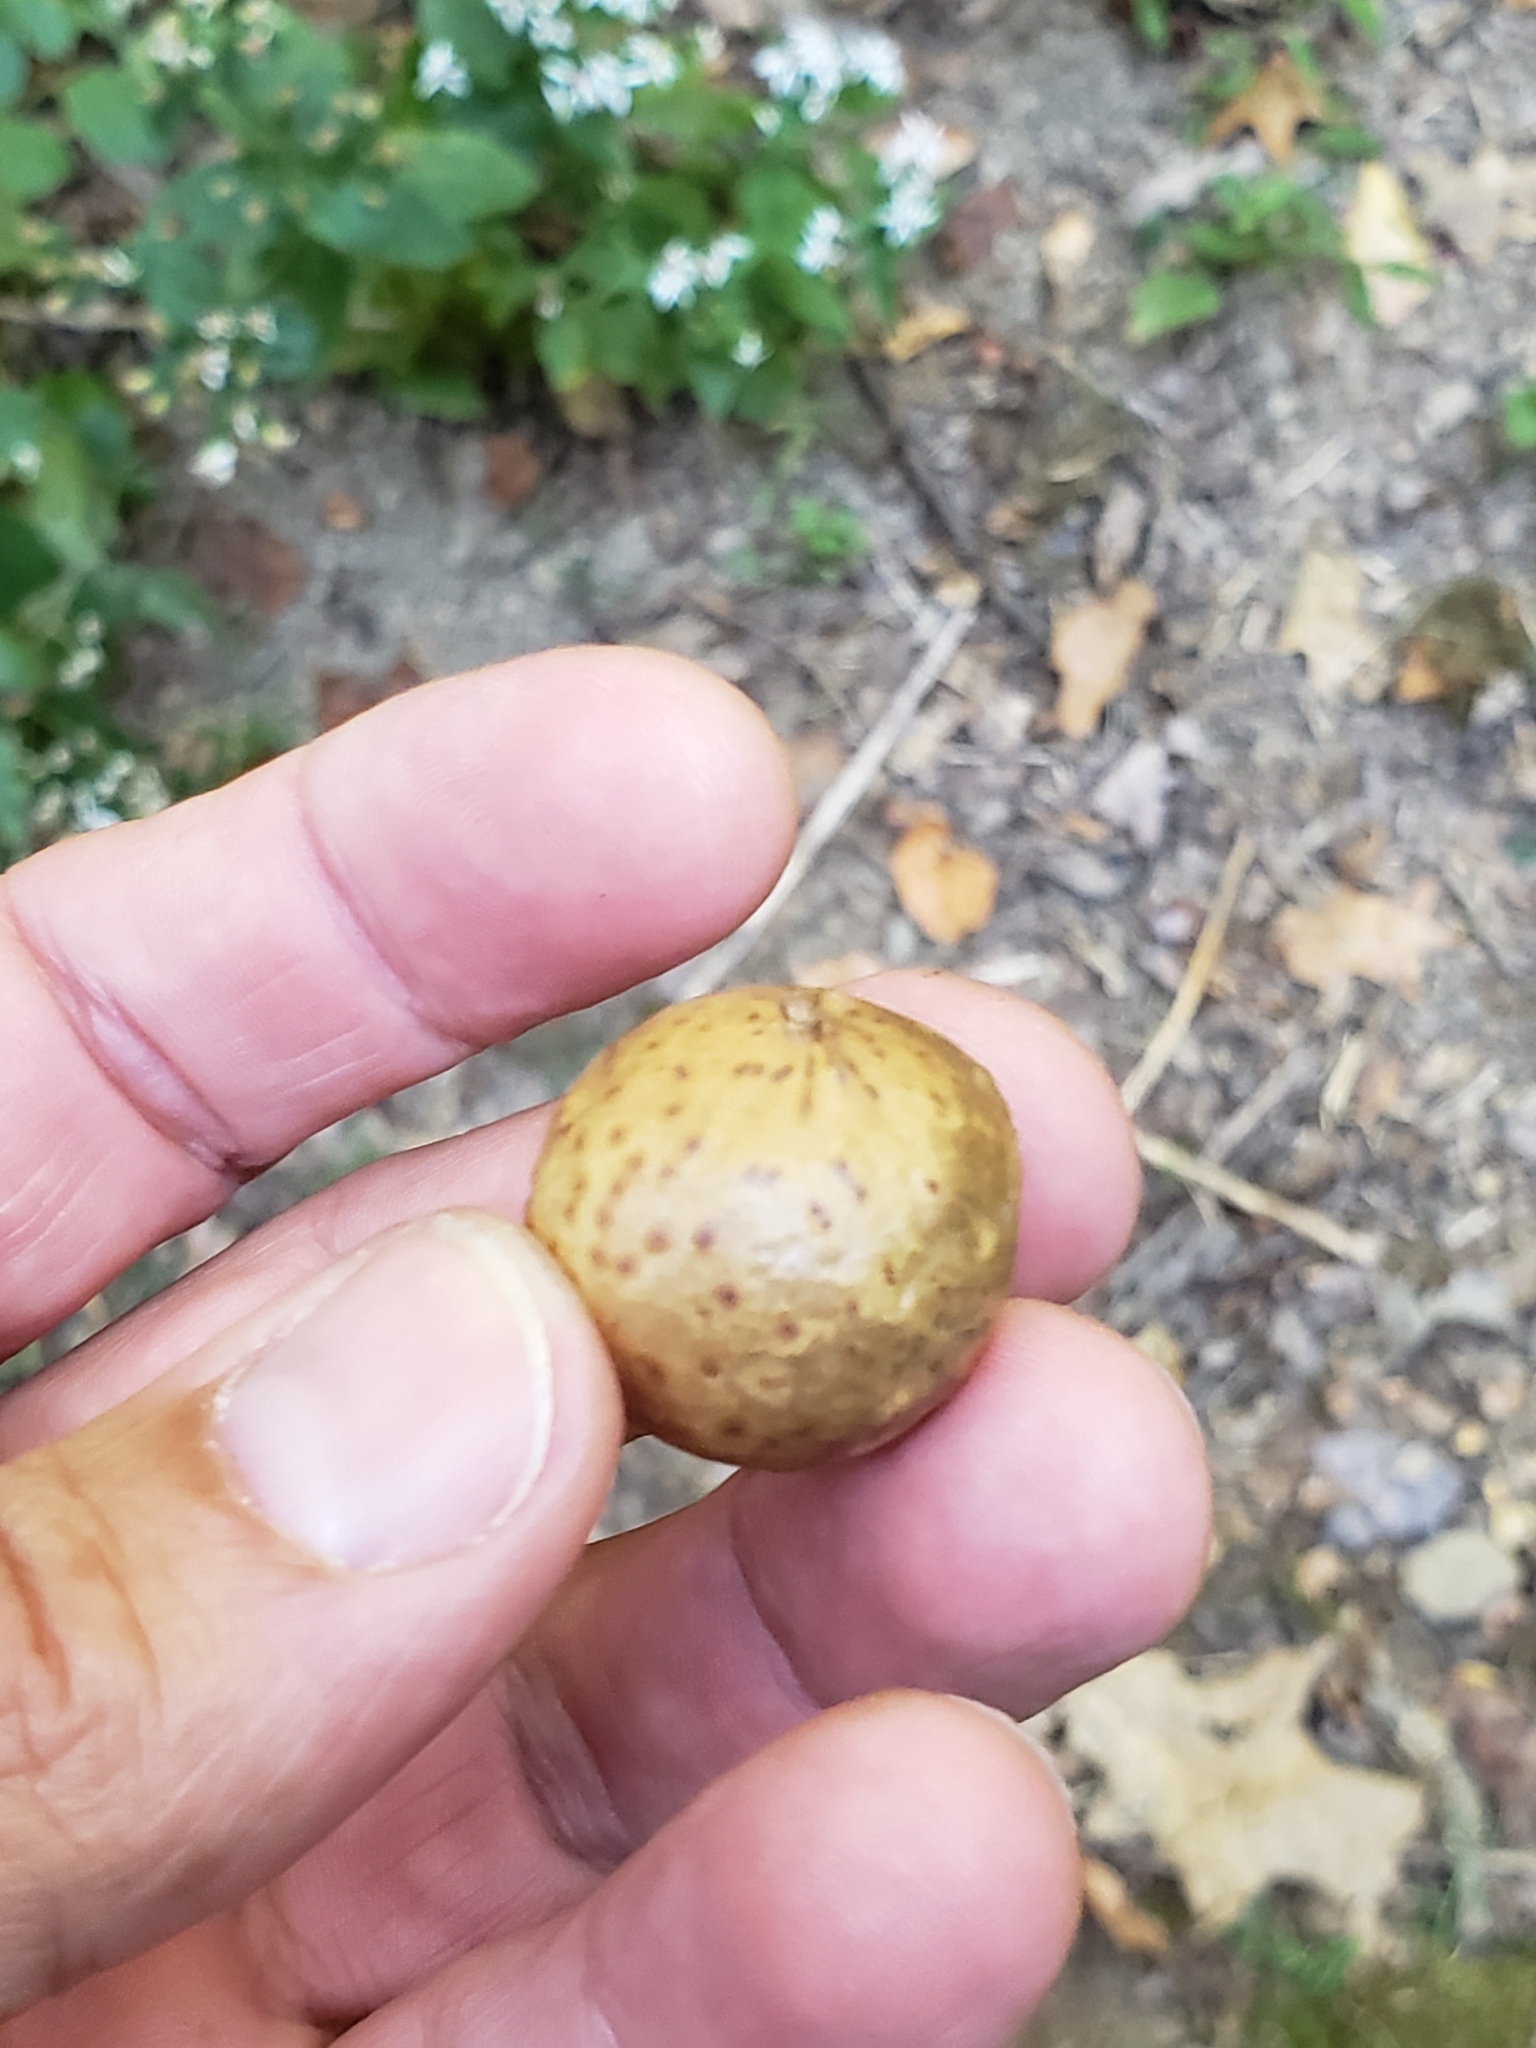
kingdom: Animalia
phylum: Arthropoda
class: Insecta
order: Hymenoptera
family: Cynipidae
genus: Amphibolips
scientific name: Amphibolips
